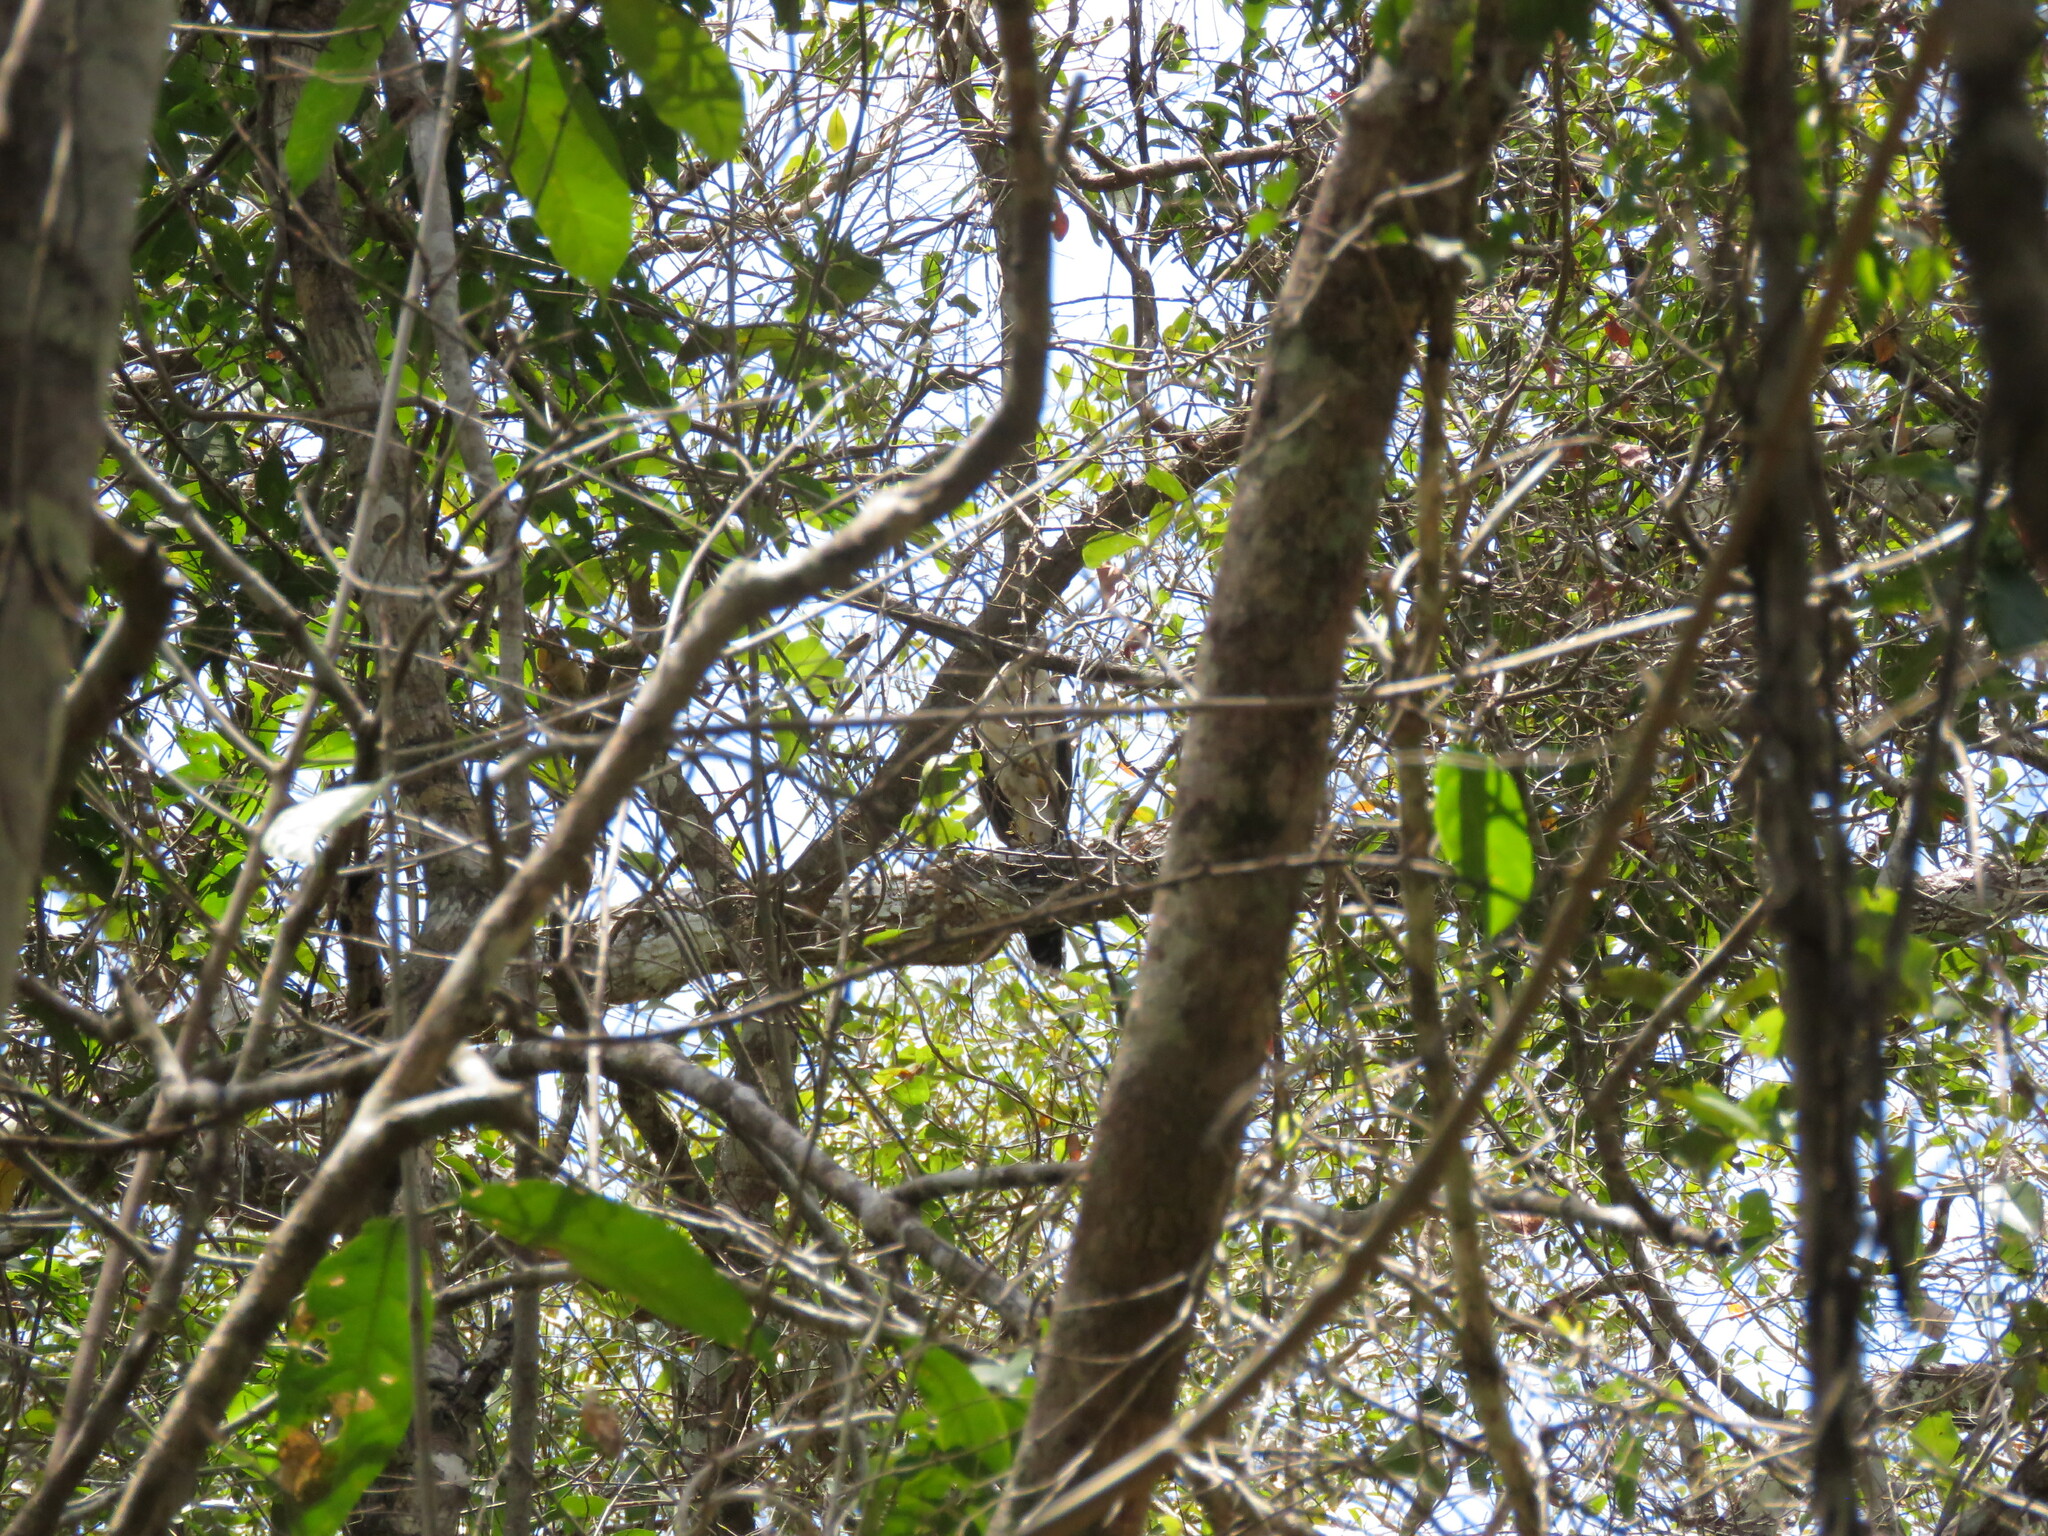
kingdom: Animalia
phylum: Chordata
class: Aves
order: Falconiformes
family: Falconidae
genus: Micrastur
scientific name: Micrastur semitorquatus
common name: Collared forest-falcon
